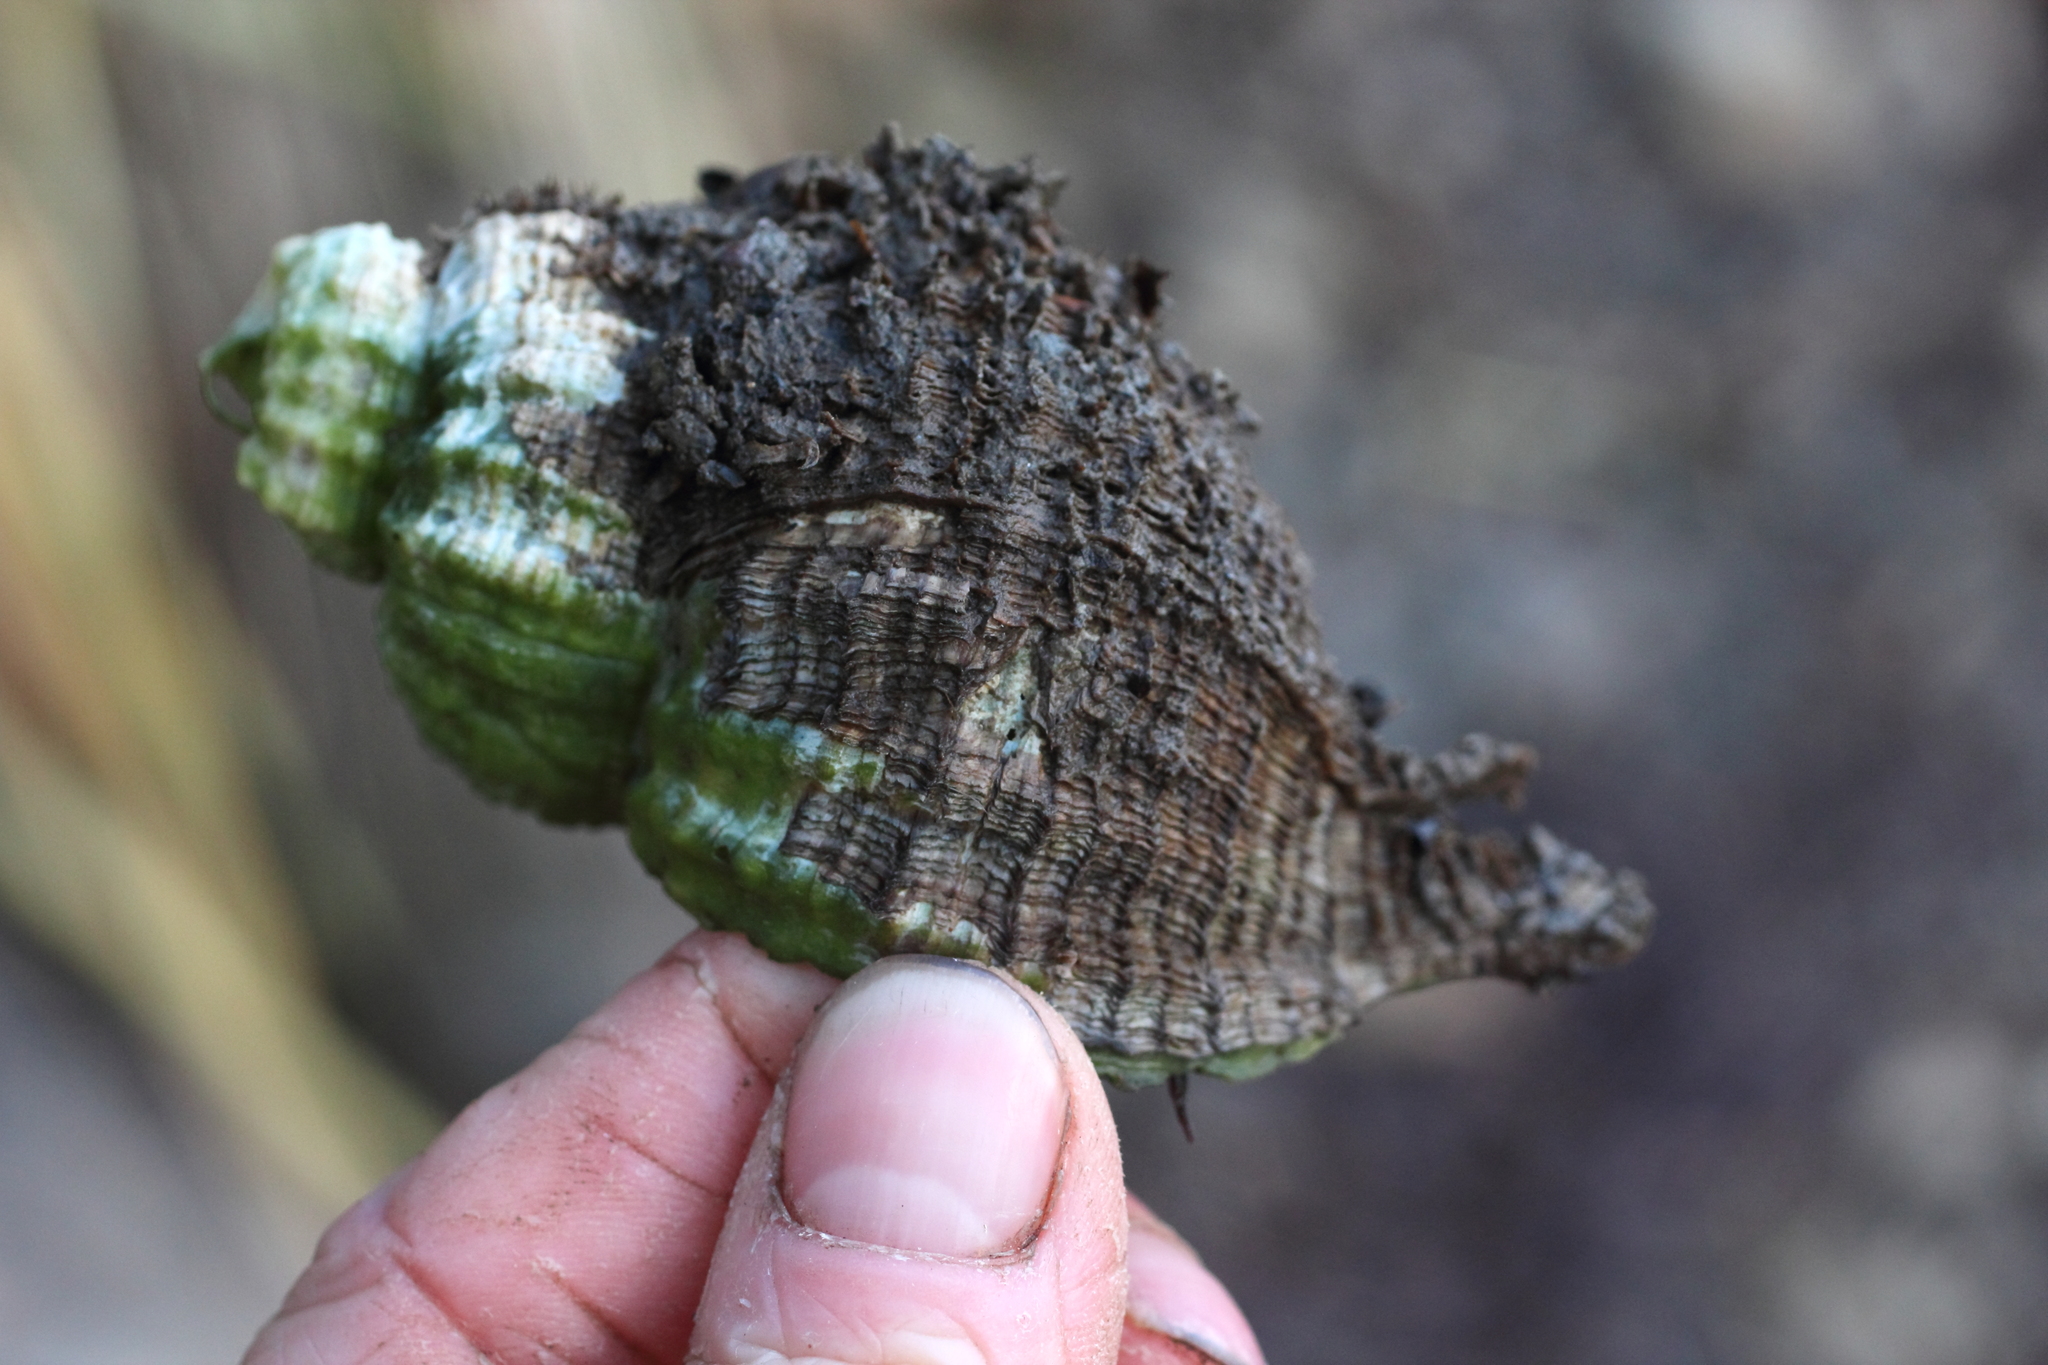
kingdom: Animalia
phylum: Mollusca
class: Gastropoda
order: Littorinimorpha
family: Cymatiidae
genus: Fusitriton
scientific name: Fusitriton oregonensis
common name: Oregon hairy triton
